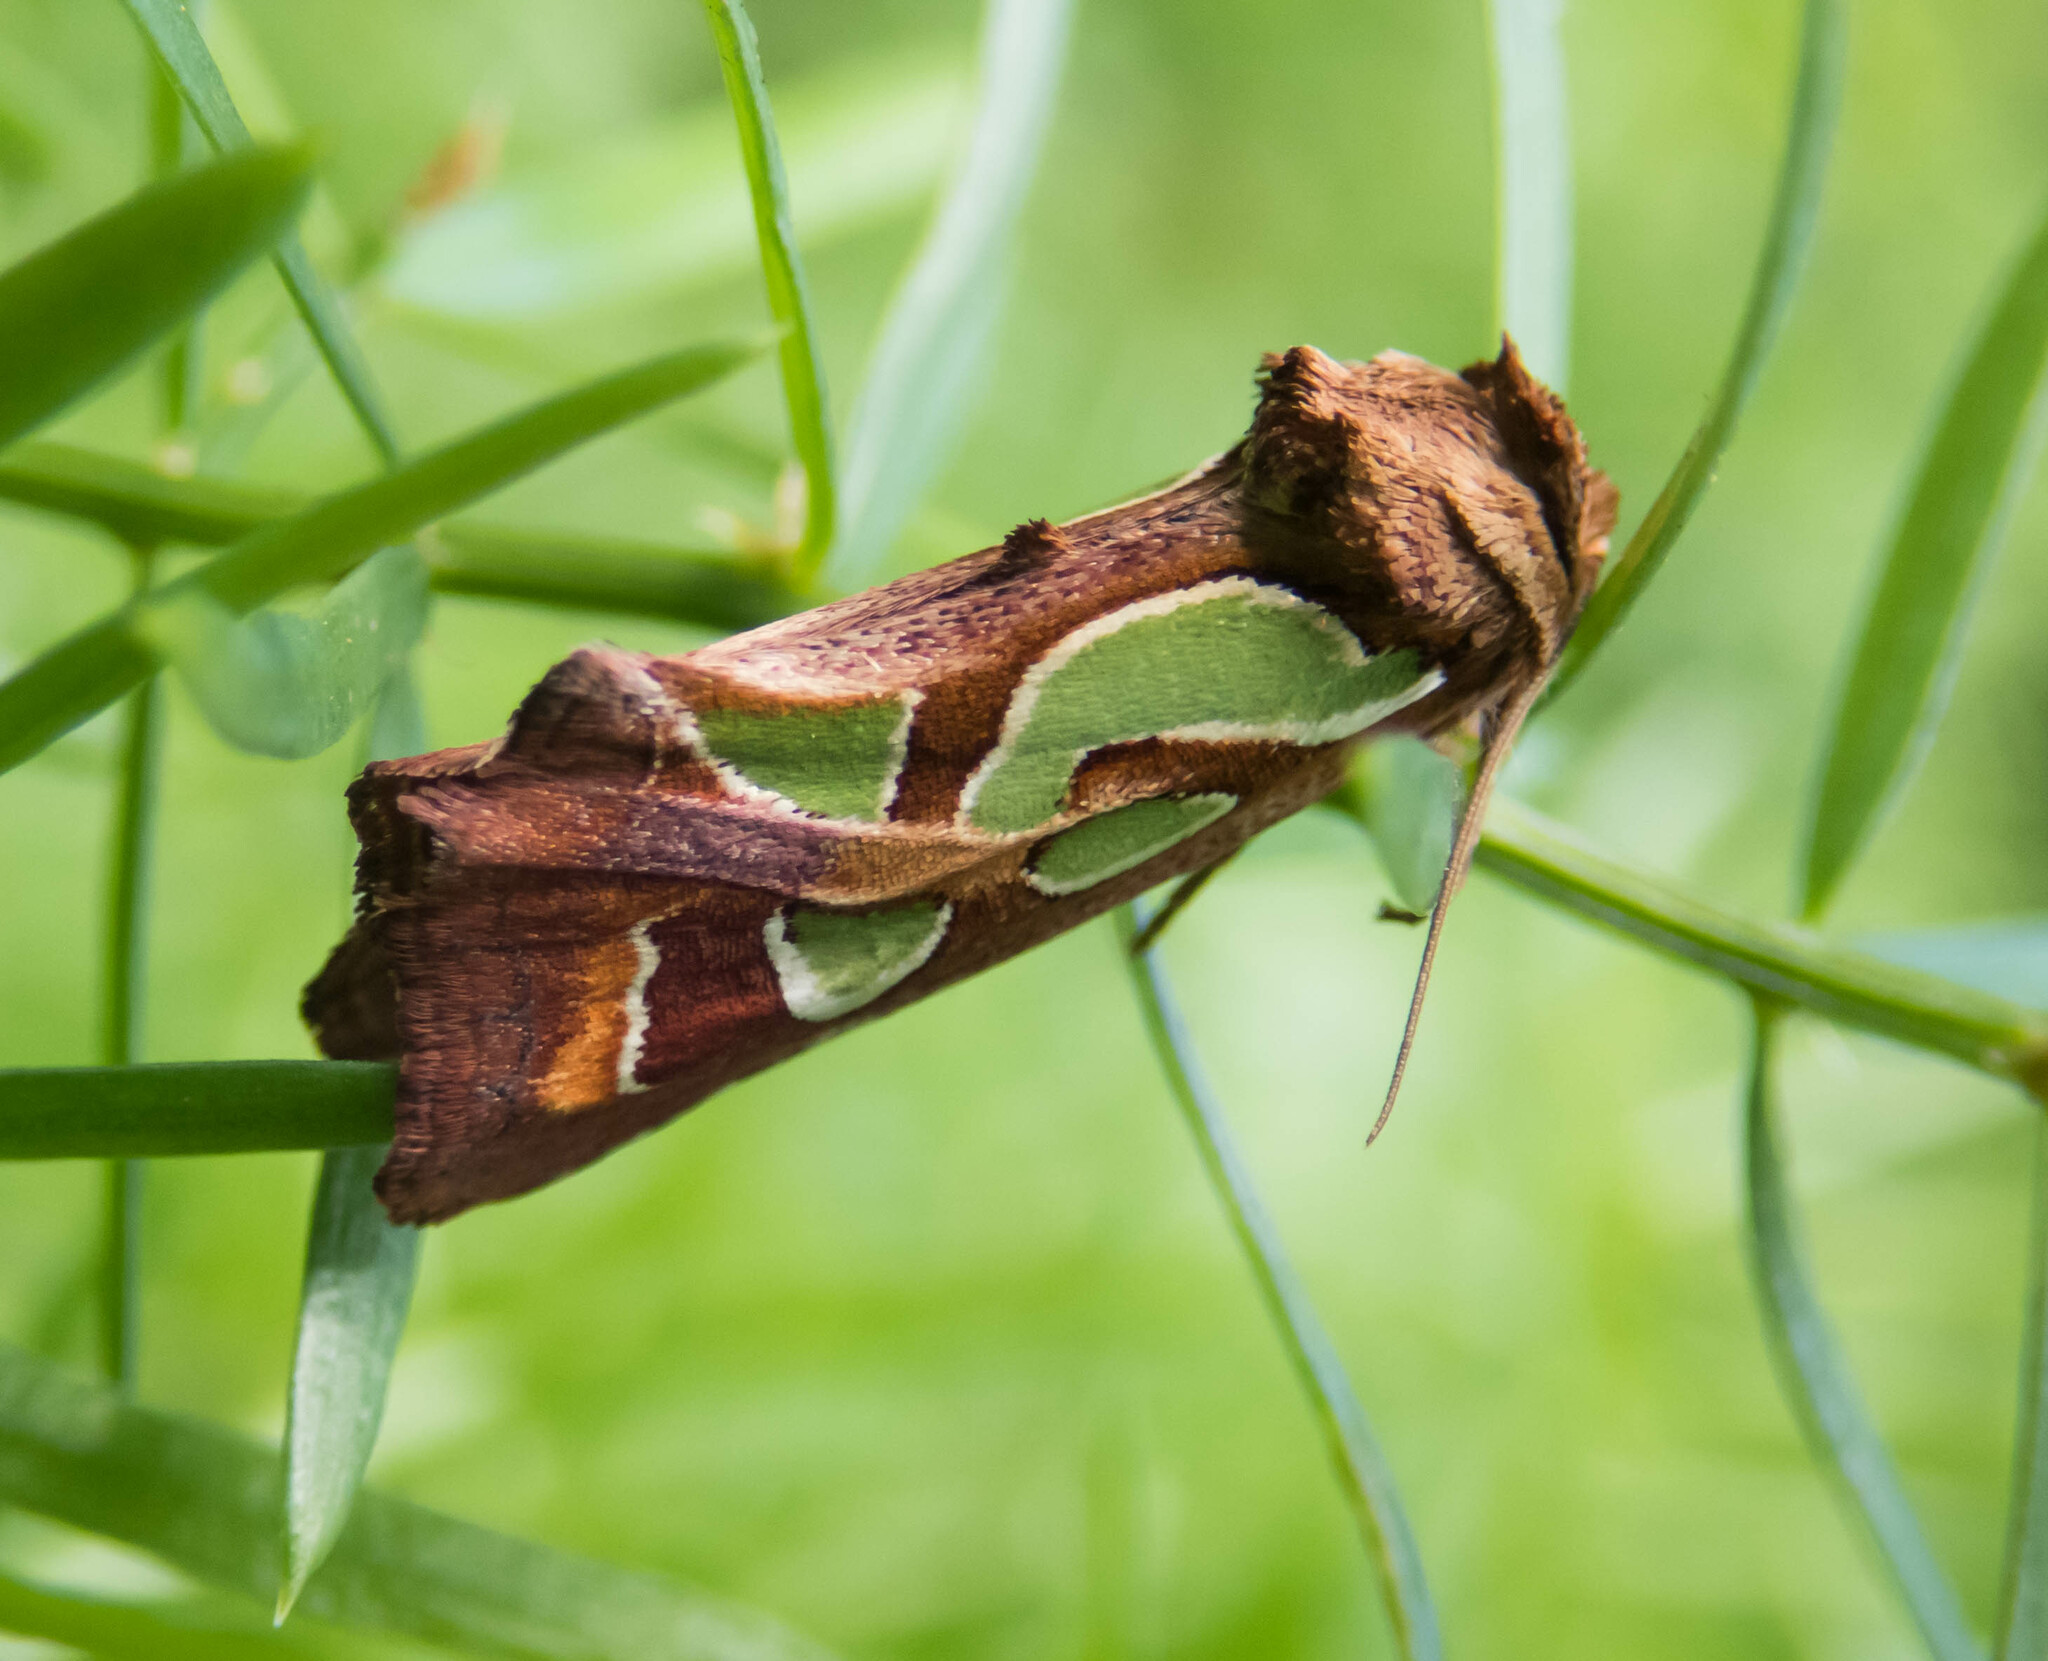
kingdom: Animalia
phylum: Arthropoda
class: Insecta
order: Lepidoptera
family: Noctuidae
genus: Cosmodes
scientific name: Cosmodes elegans
